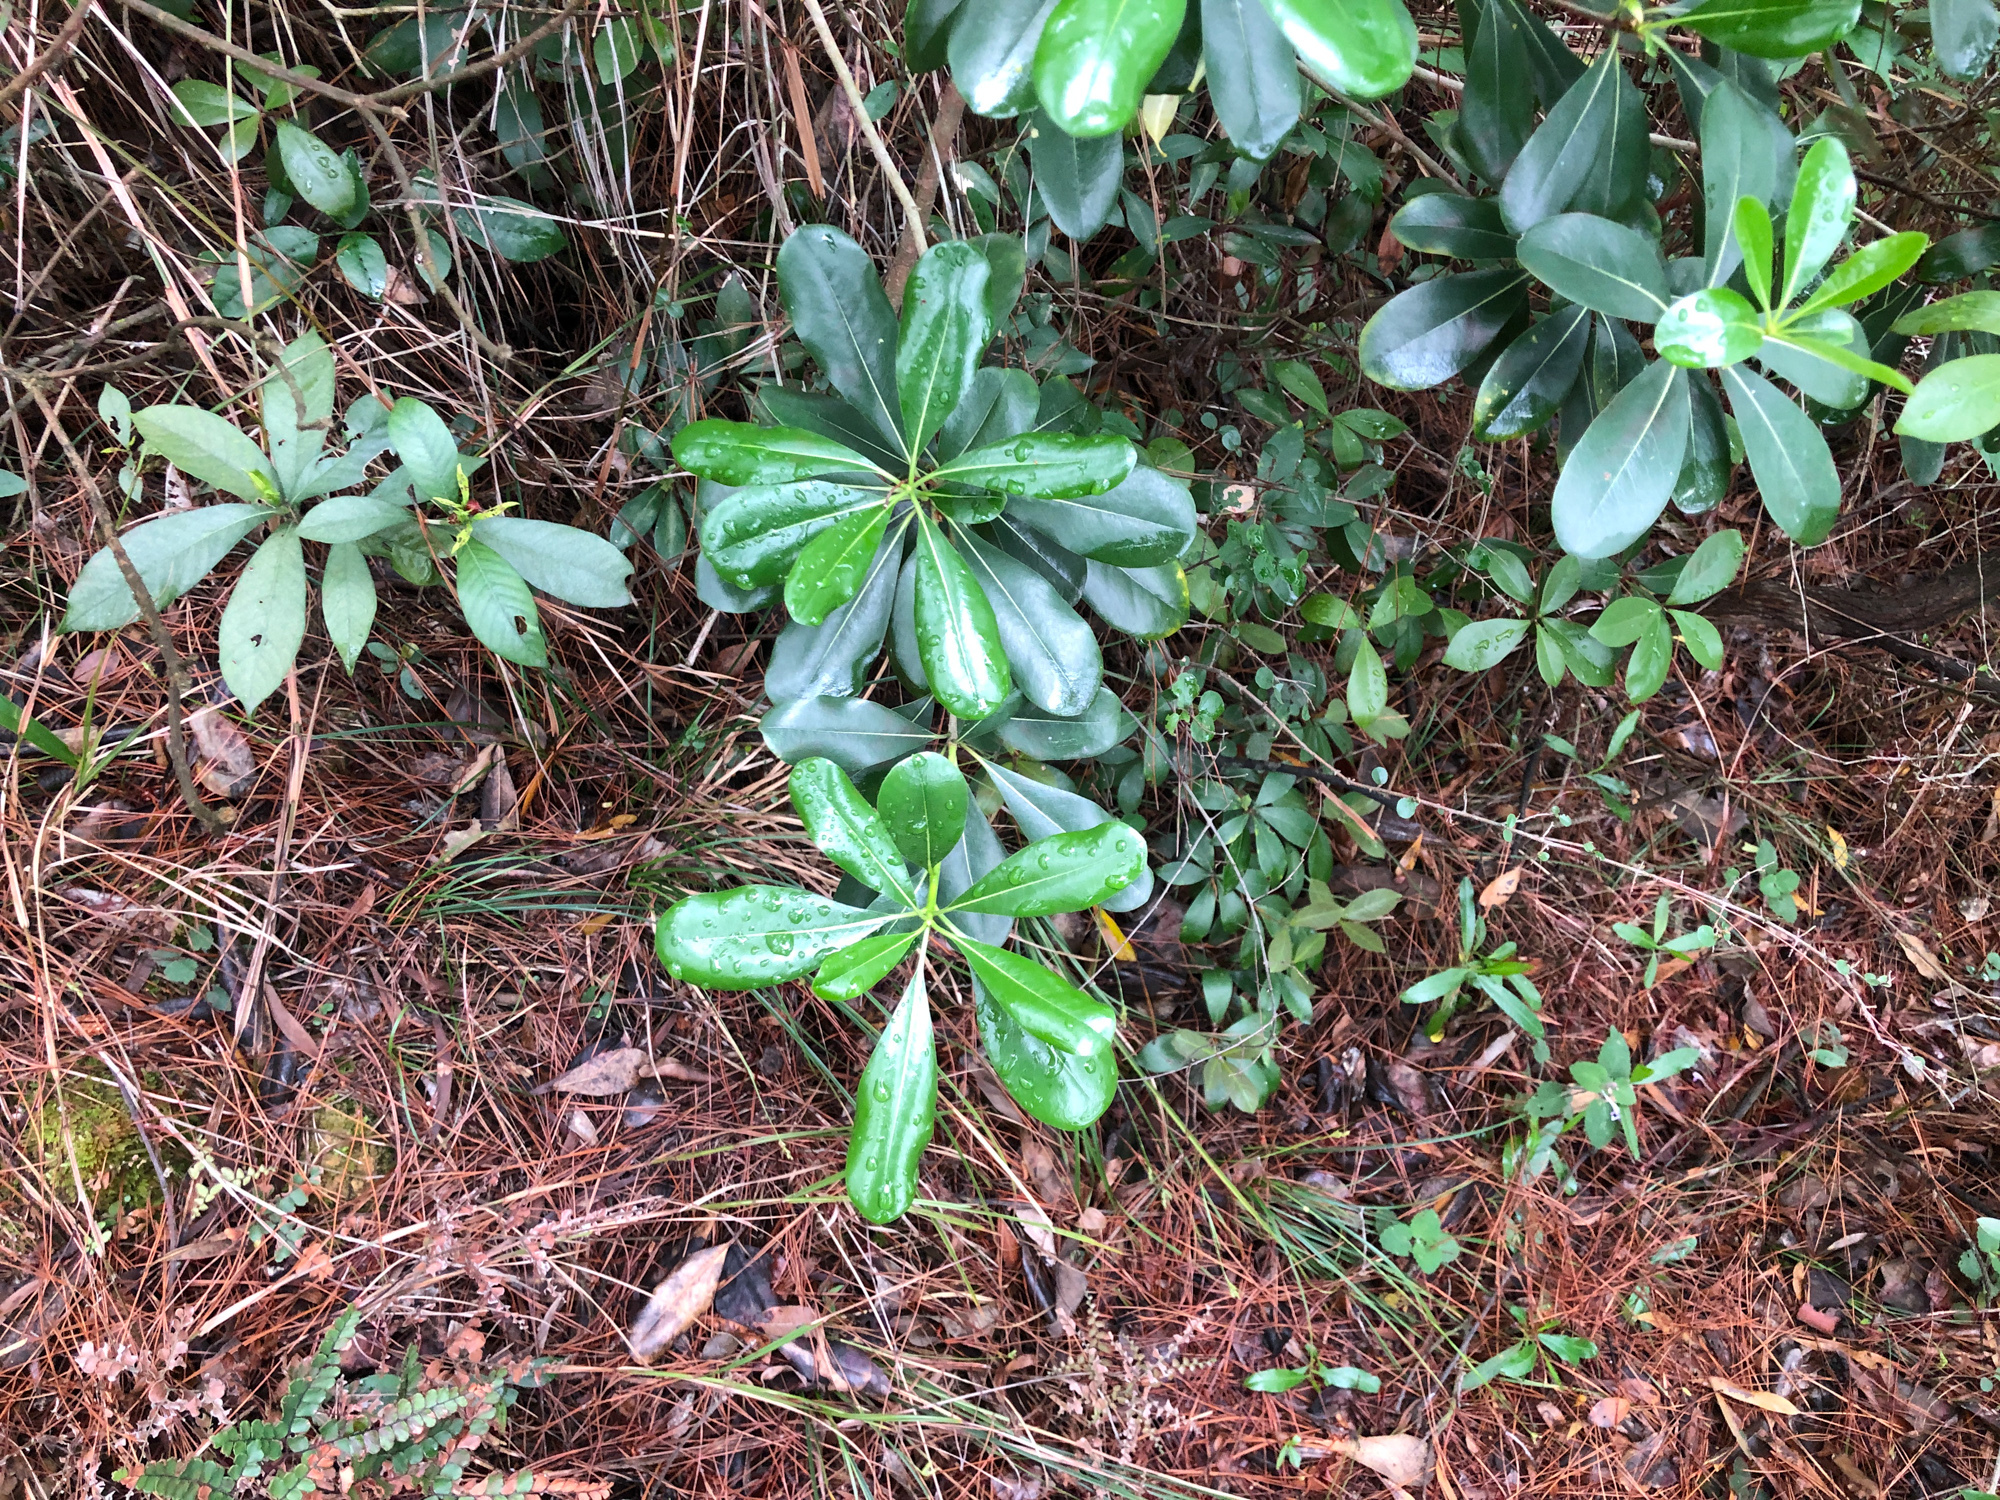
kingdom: Plantae
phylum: Tracheophyta
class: Magnoliopsida
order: Apiales
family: Pittosporaceae
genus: Pittosporum
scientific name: Pittosporum tobira
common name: Japanese cheesewood
